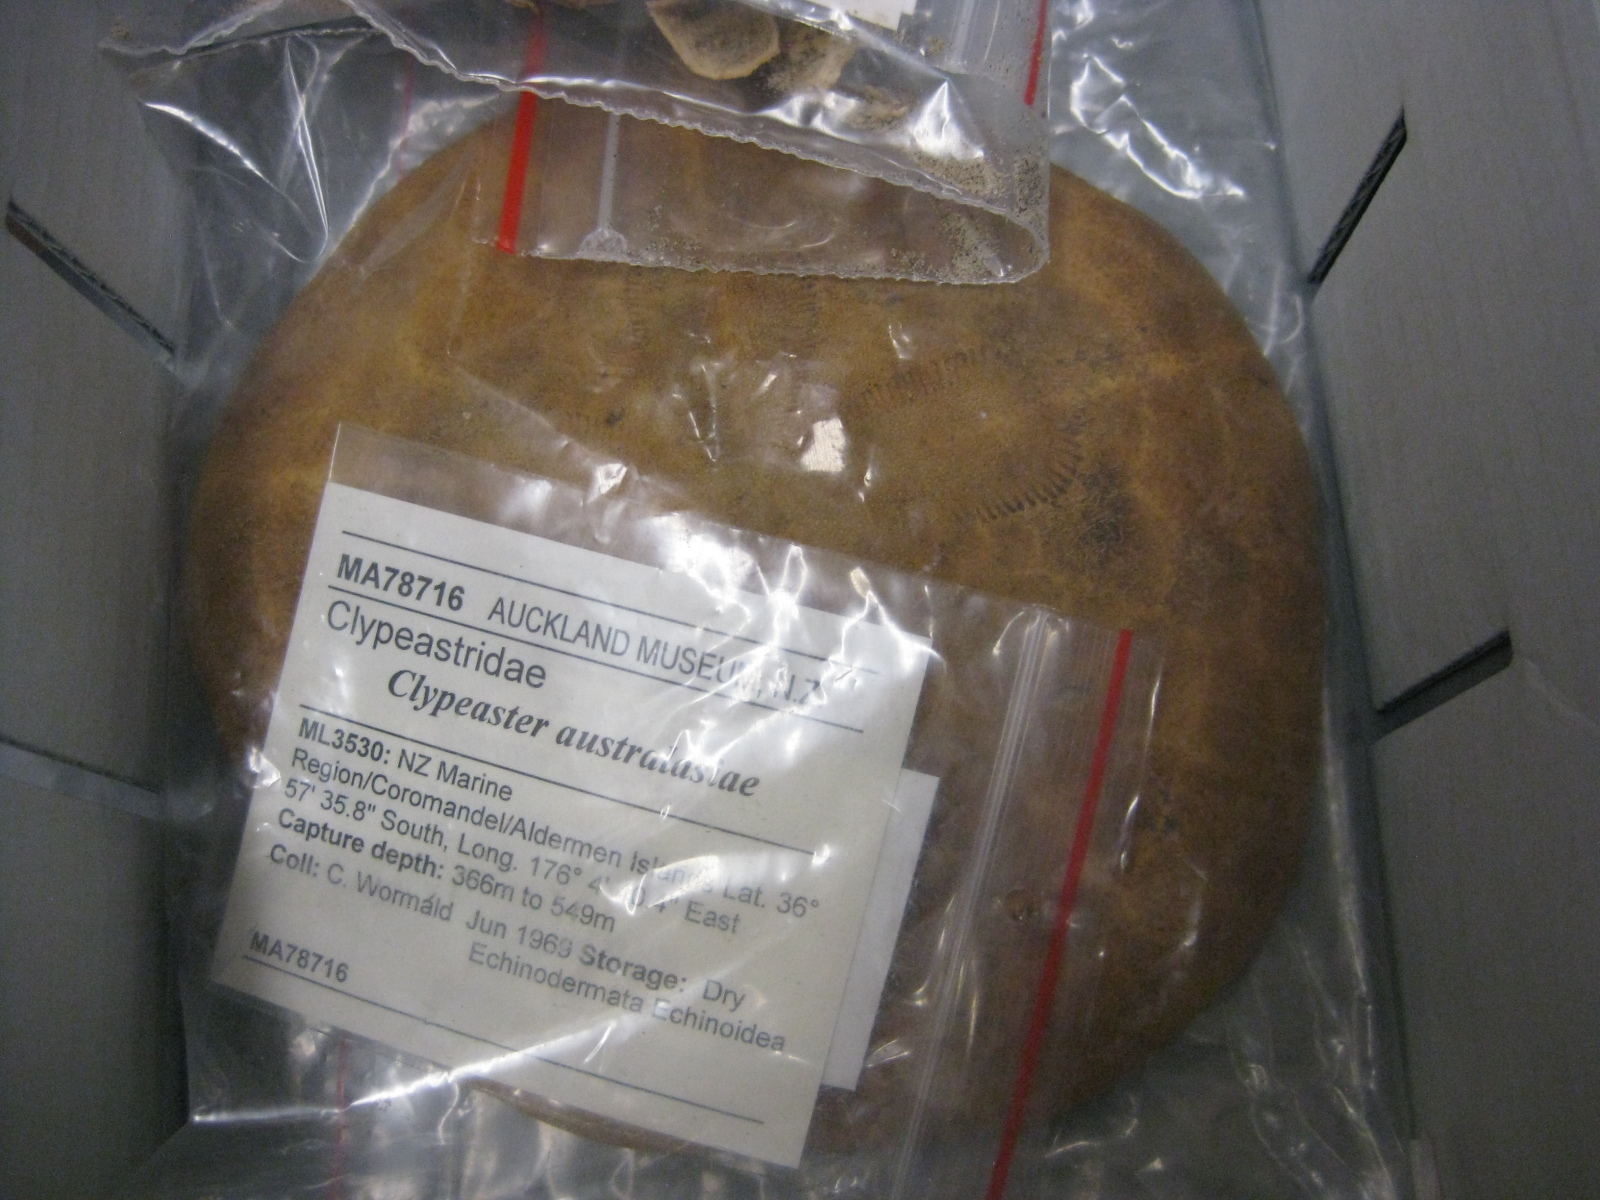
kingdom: Animalia
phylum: Echinodermata
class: Echinoidea
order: Clypeasteroida
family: Clypeasteridae
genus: Clypeaster
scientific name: Clypeaster australasiae
